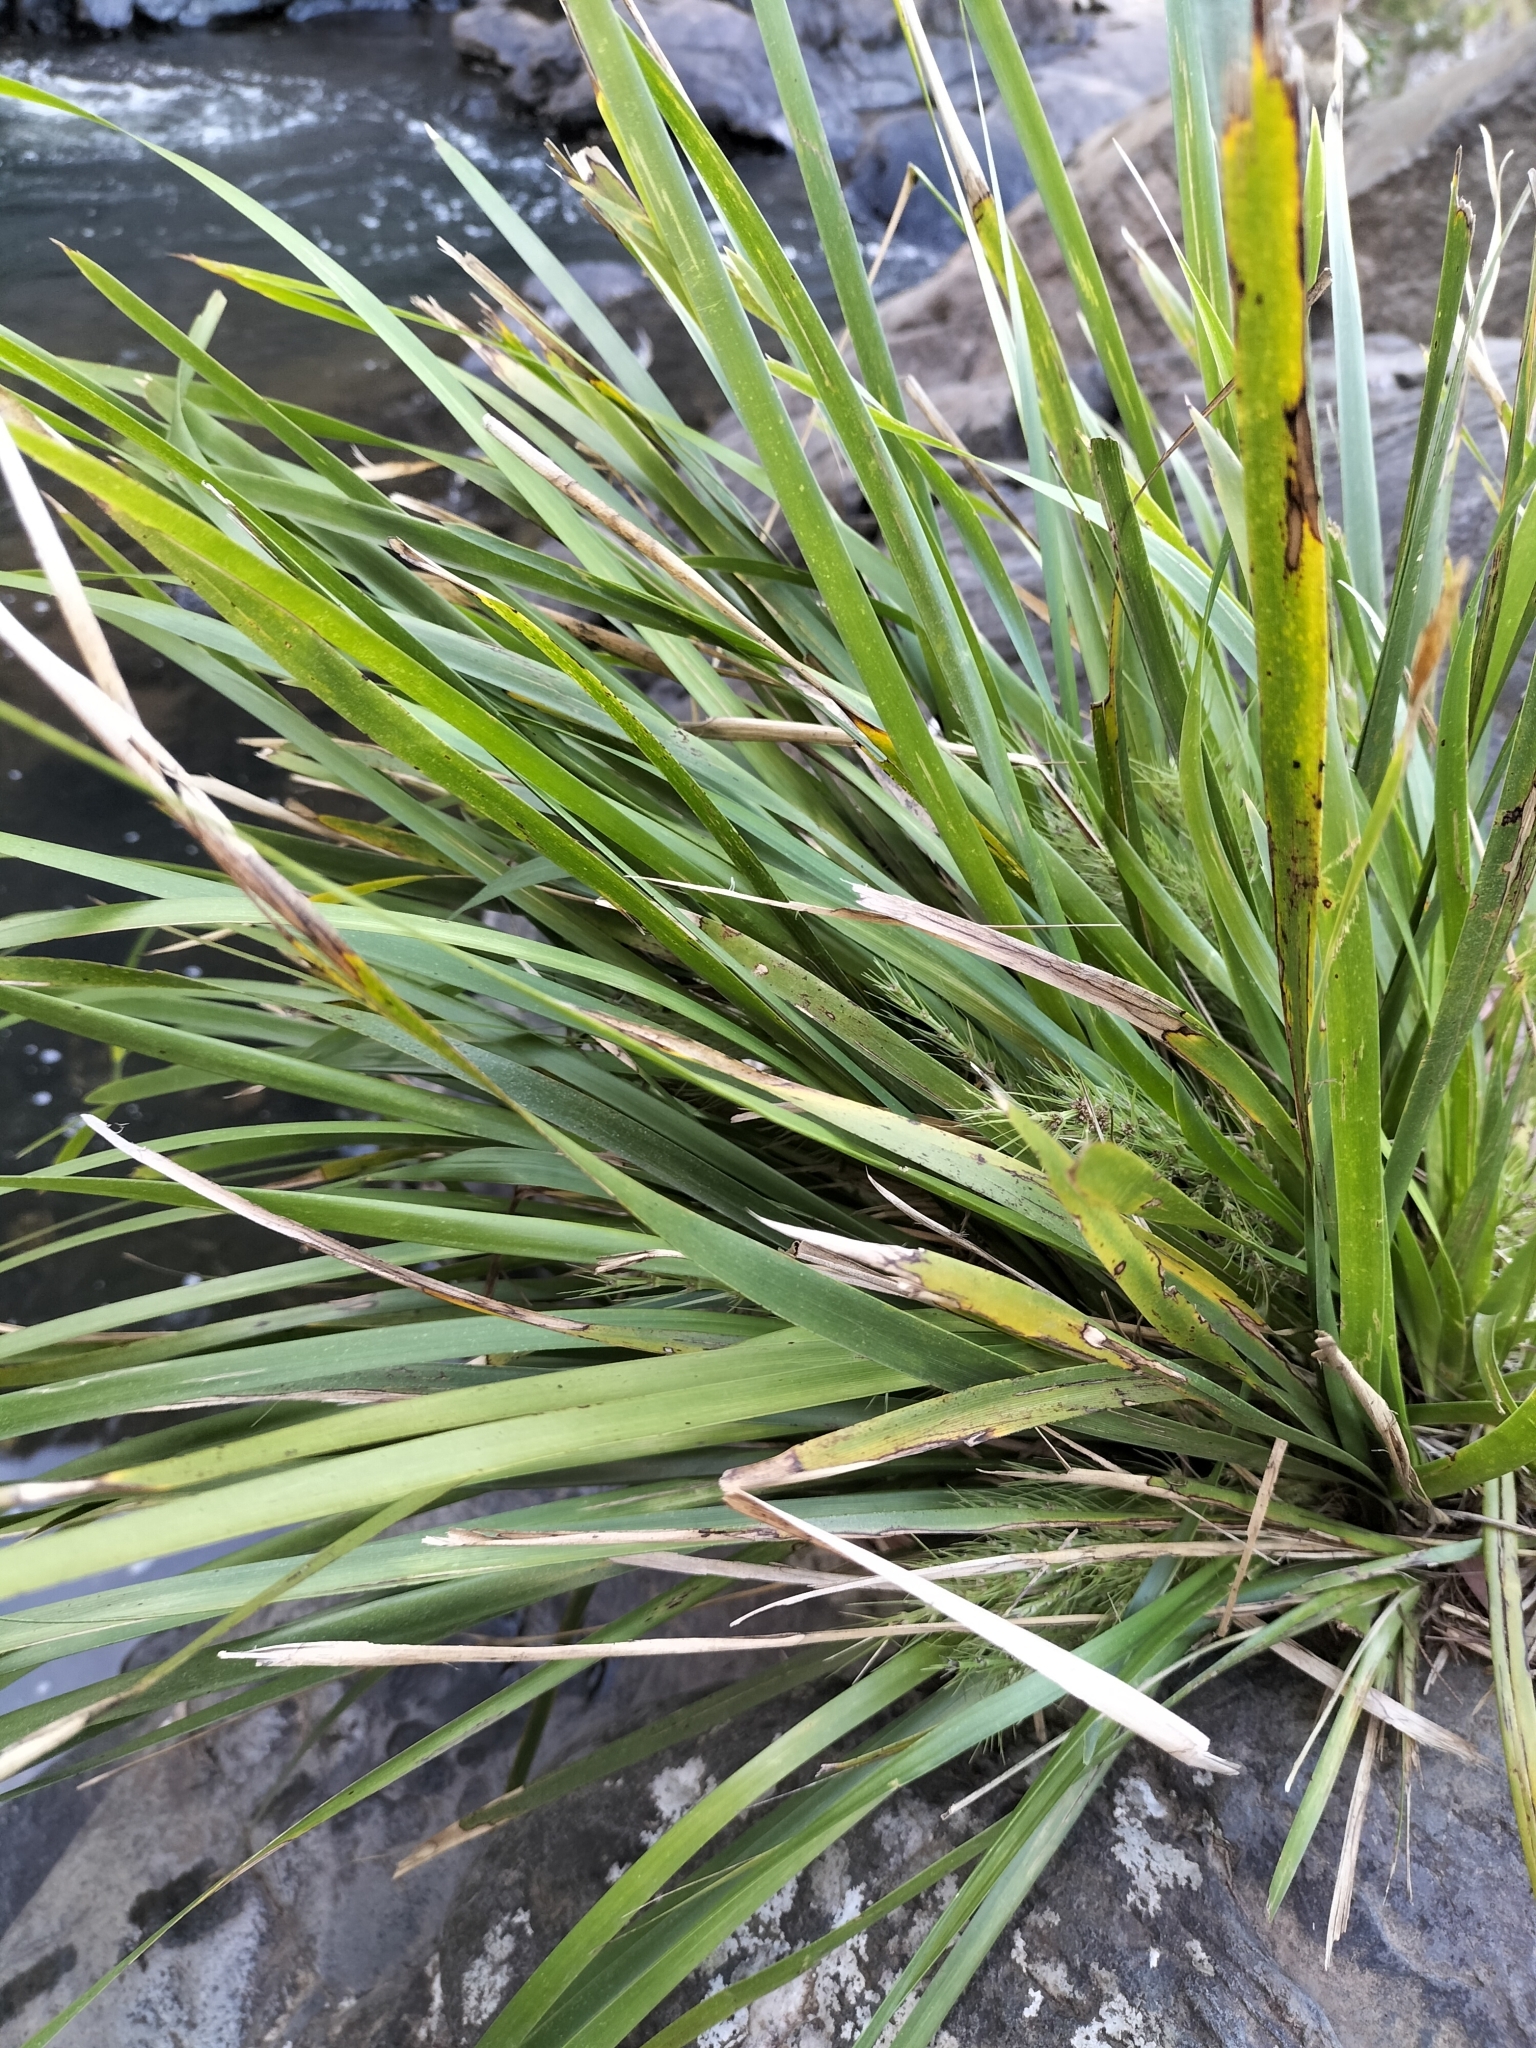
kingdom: Plantae
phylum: Tracheophyta
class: Liliopsida
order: Asparagales
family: Asparagaceae
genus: Lomandra
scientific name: Lomandra hystrix
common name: Creek mat-rush
